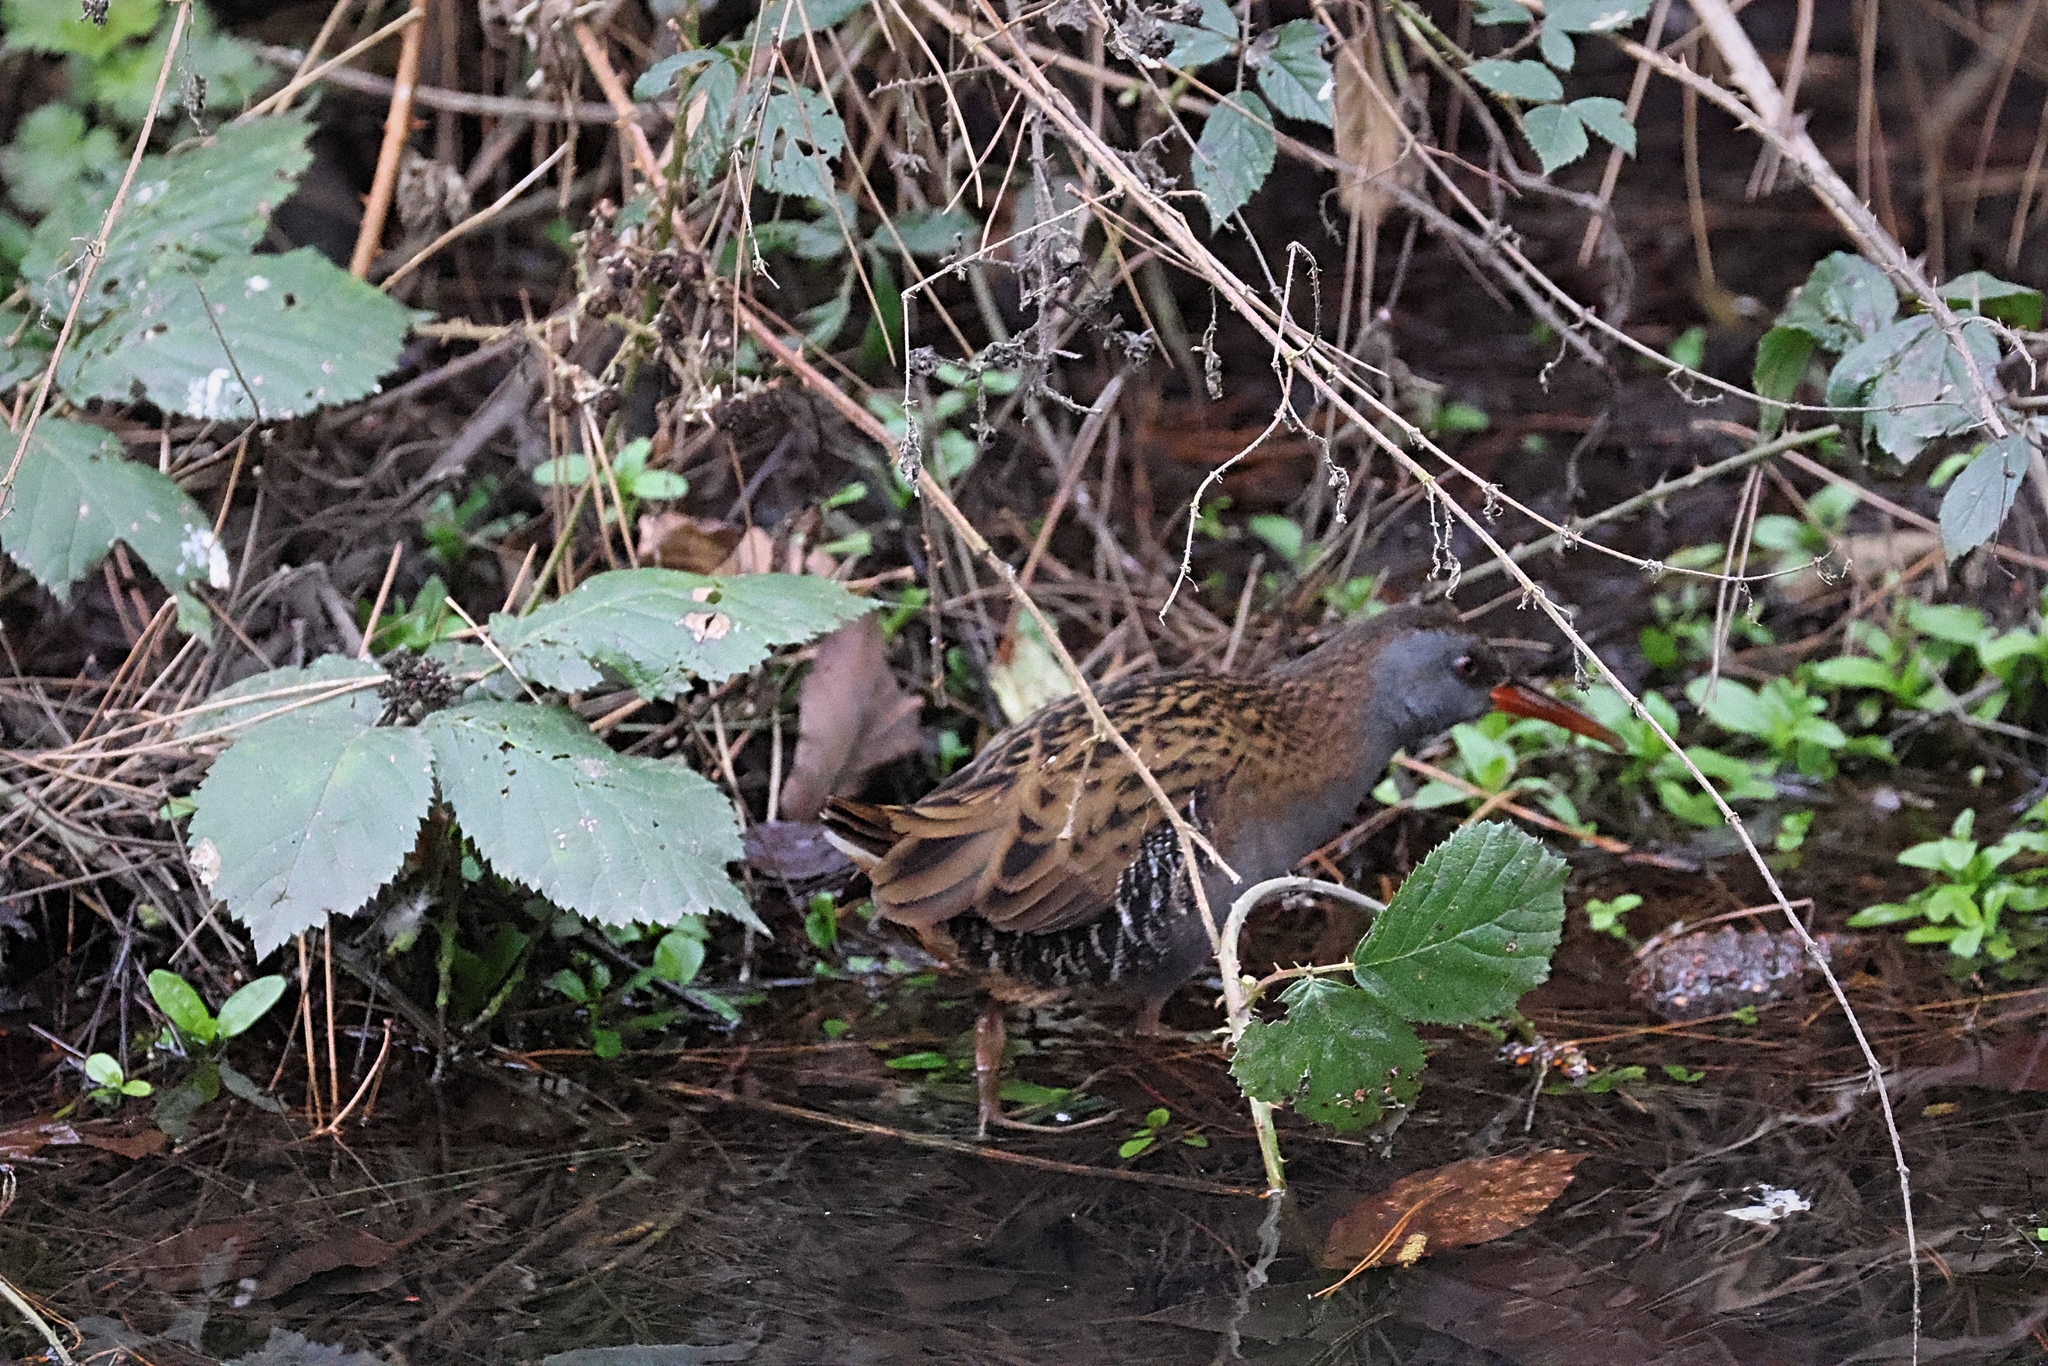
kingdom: Animalia
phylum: Chordata
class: Aves
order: Gruiformes
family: Rallidae
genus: Rallus
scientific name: Rallus aquaticus
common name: Water rail
